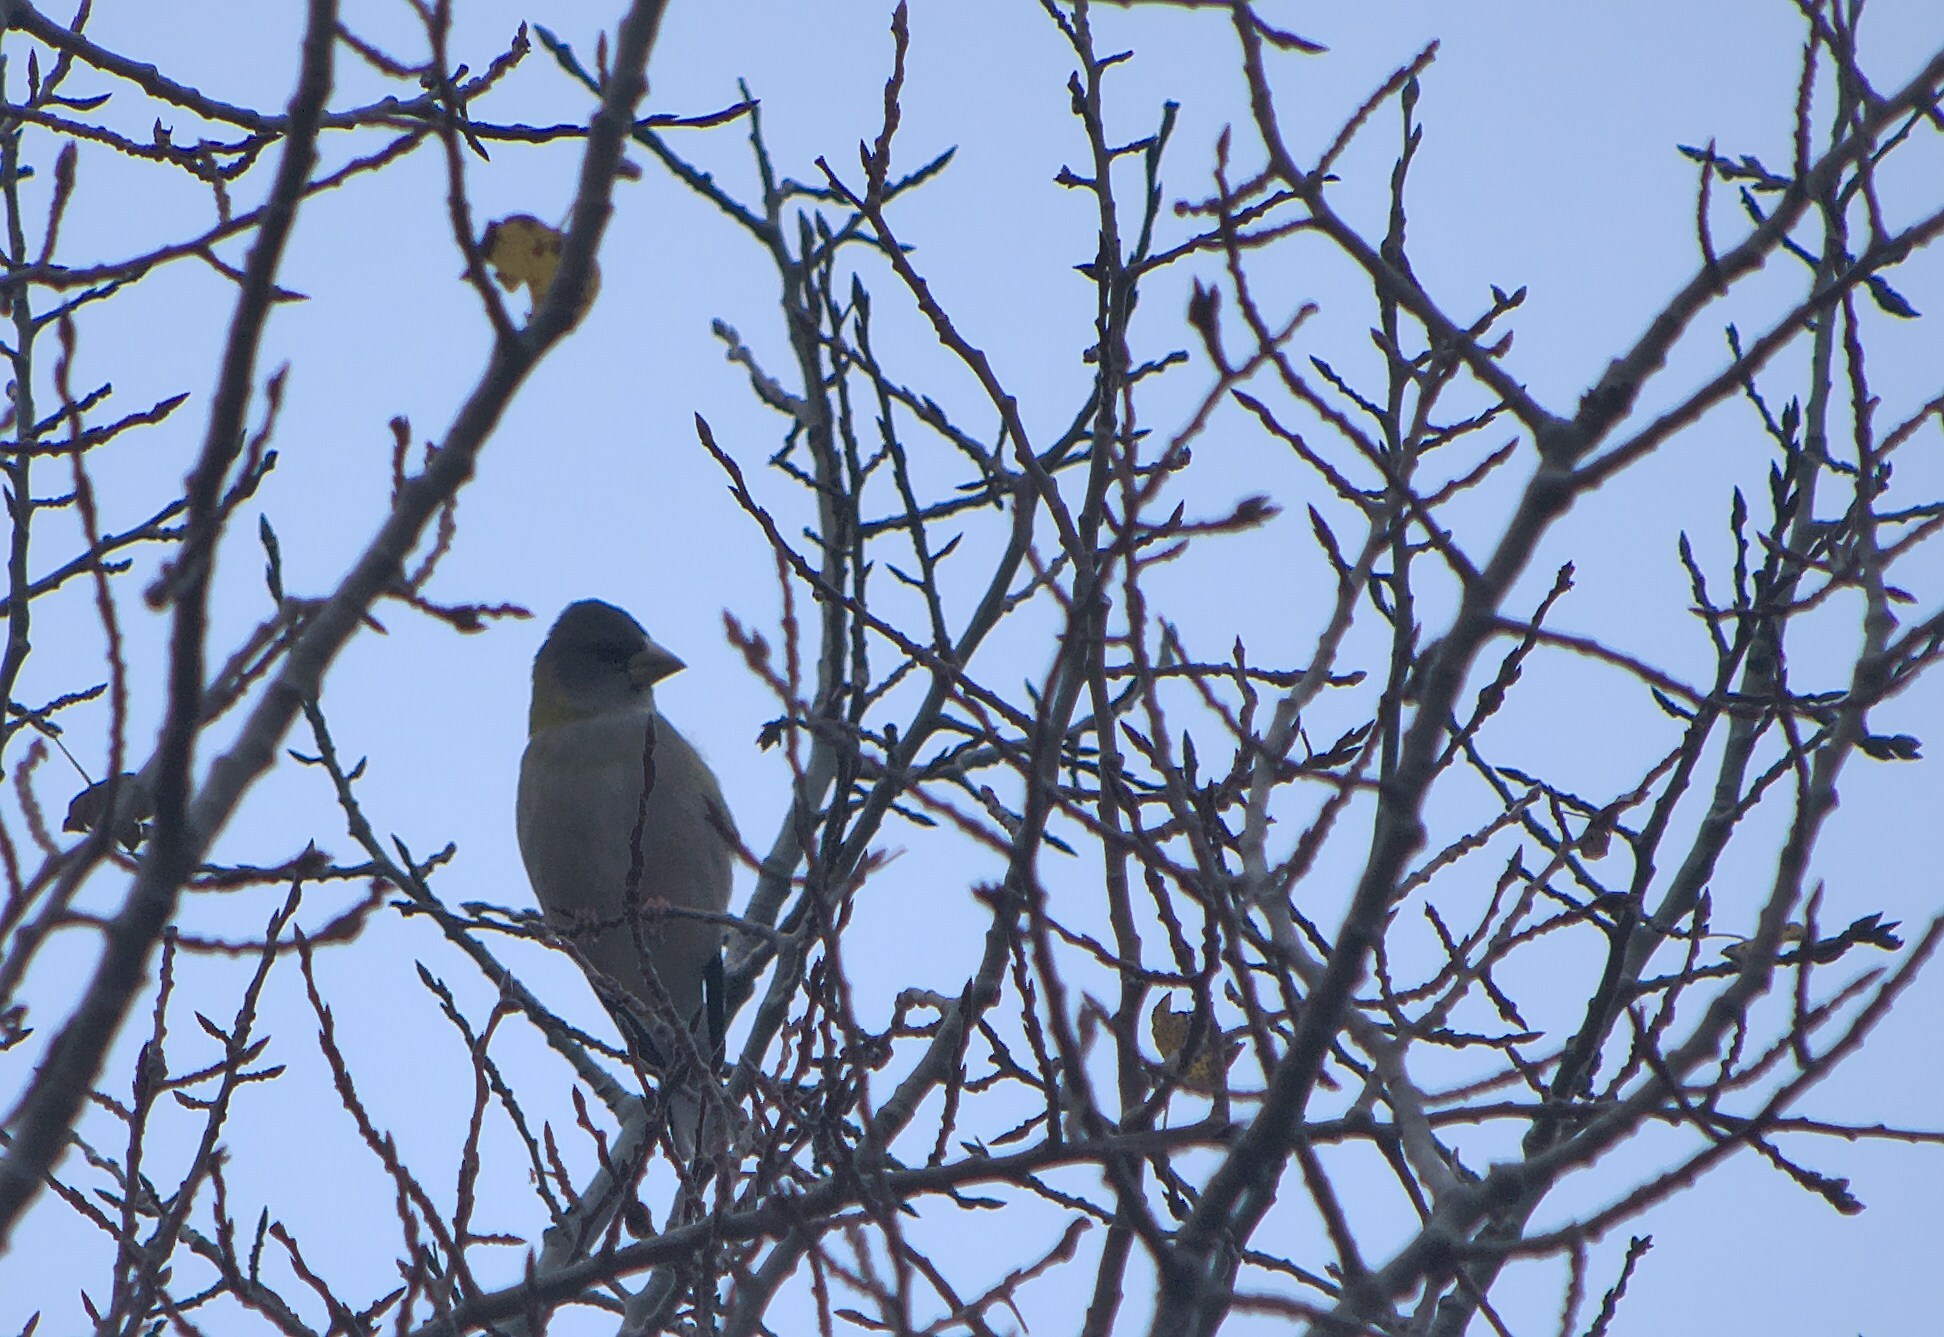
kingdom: Animalia
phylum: Chordata
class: Aves
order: Passeriformes
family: Fringillidae
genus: Hesperiphona
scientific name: Hesperiphona vespertina
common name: Evening grosbeak
